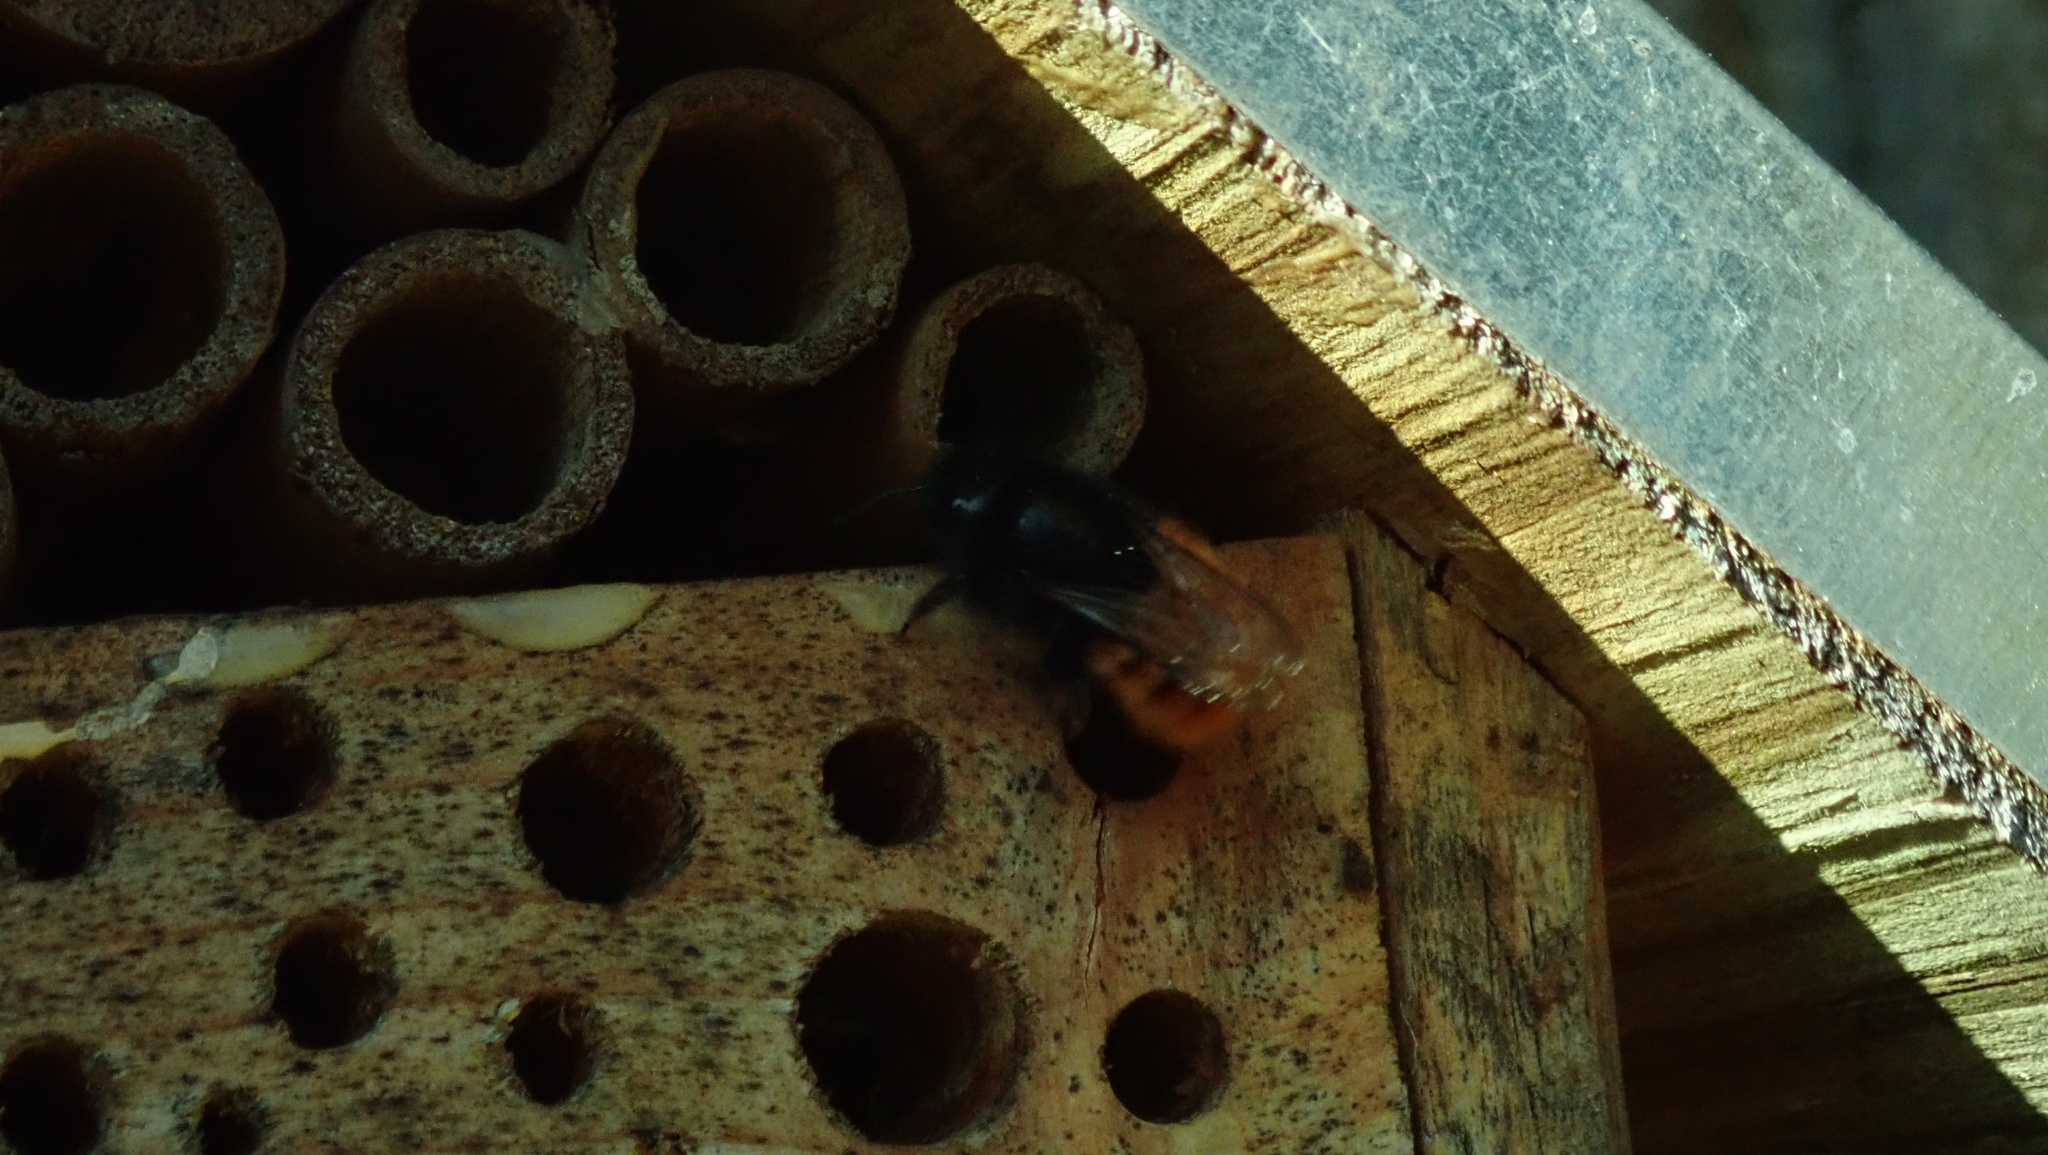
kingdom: Animalia
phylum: Arthropoda
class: Insecta
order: Hymenoptera
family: Megachilidae
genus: Osmia
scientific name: Osmia cornuta
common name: Mason bee
